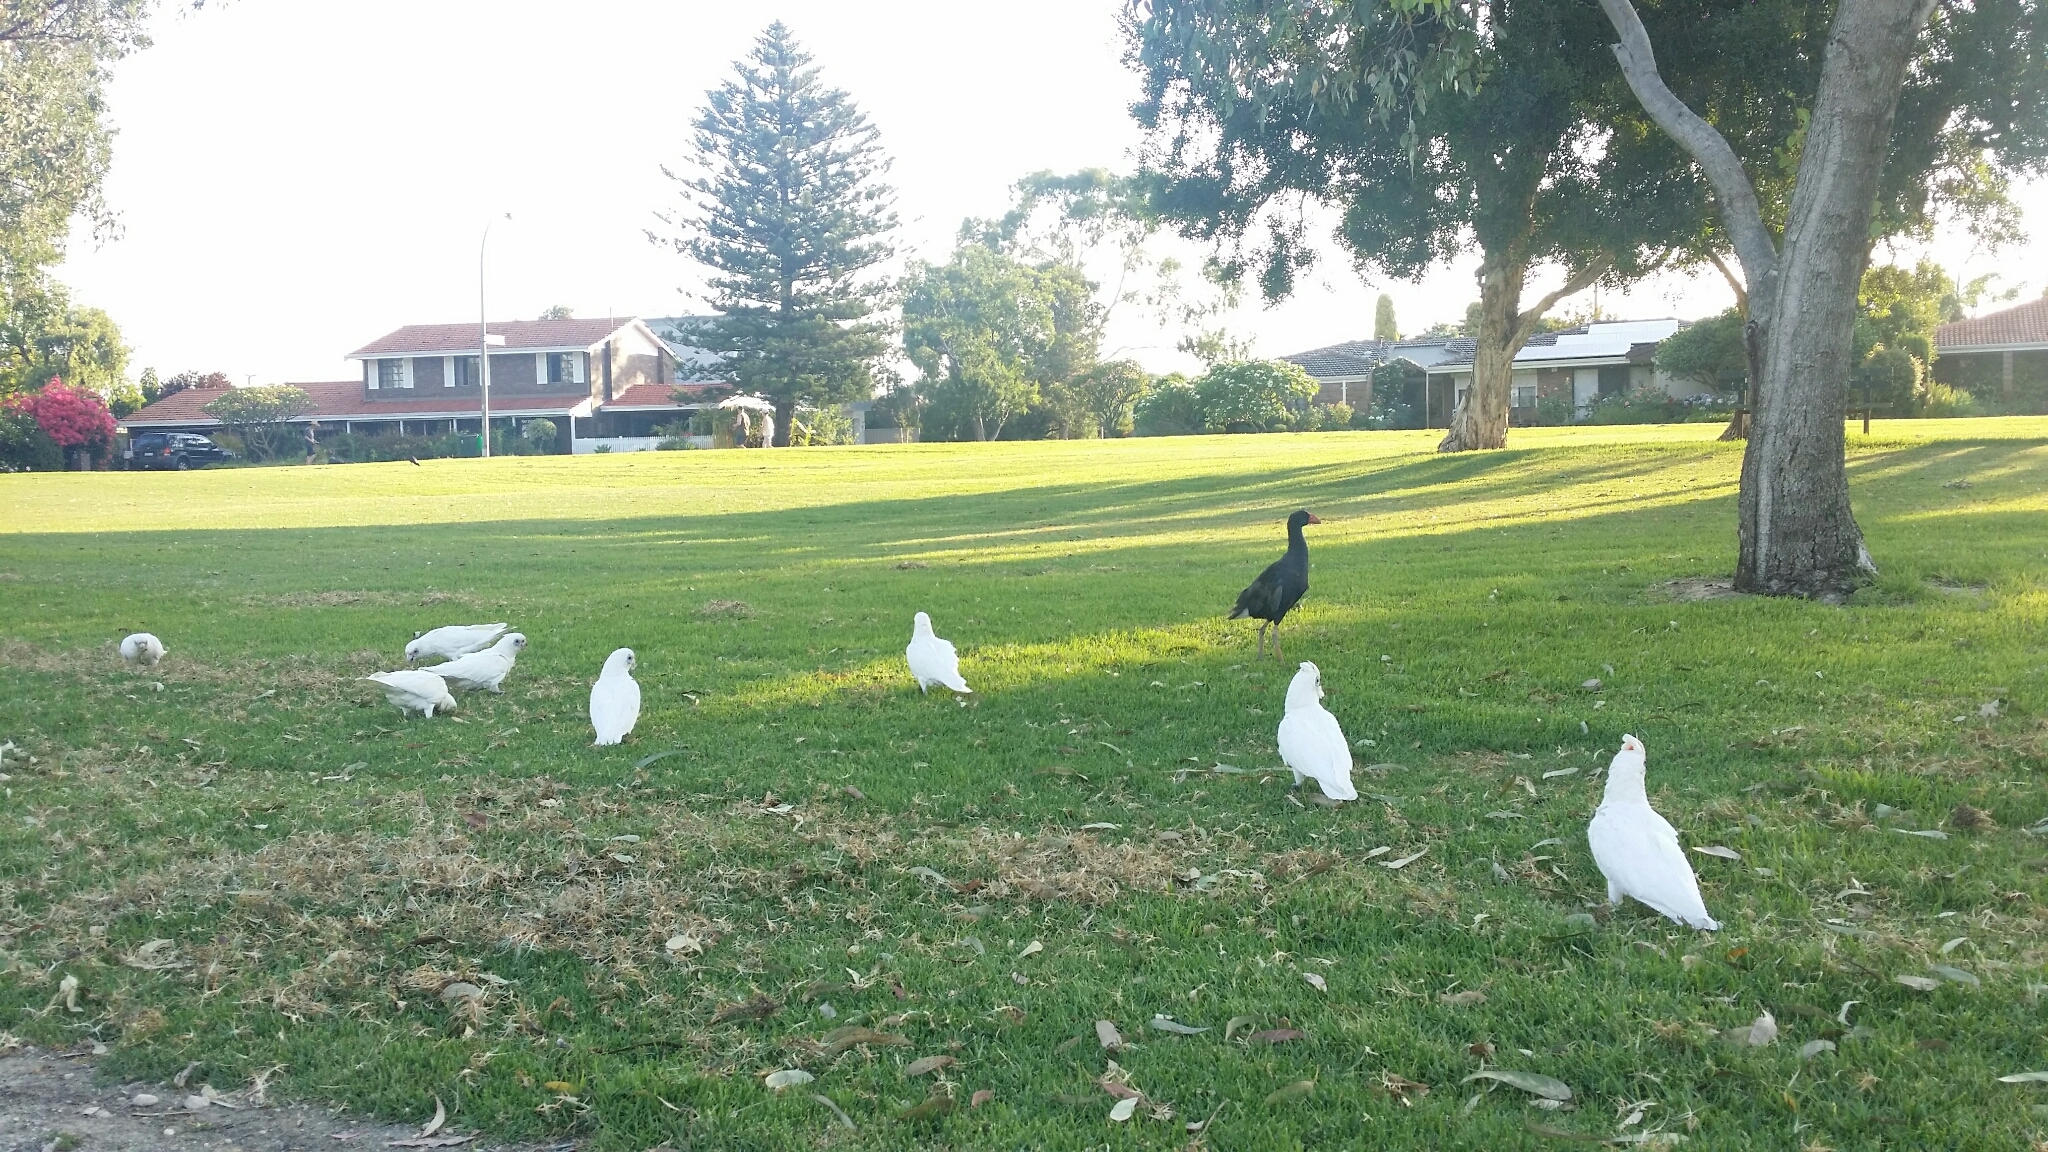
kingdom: Animalia
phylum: Chordata
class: Aves
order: Psittaciformes
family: Psittacidae
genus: Cacatua
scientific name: Cacatua sanguinea
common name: Little corella
